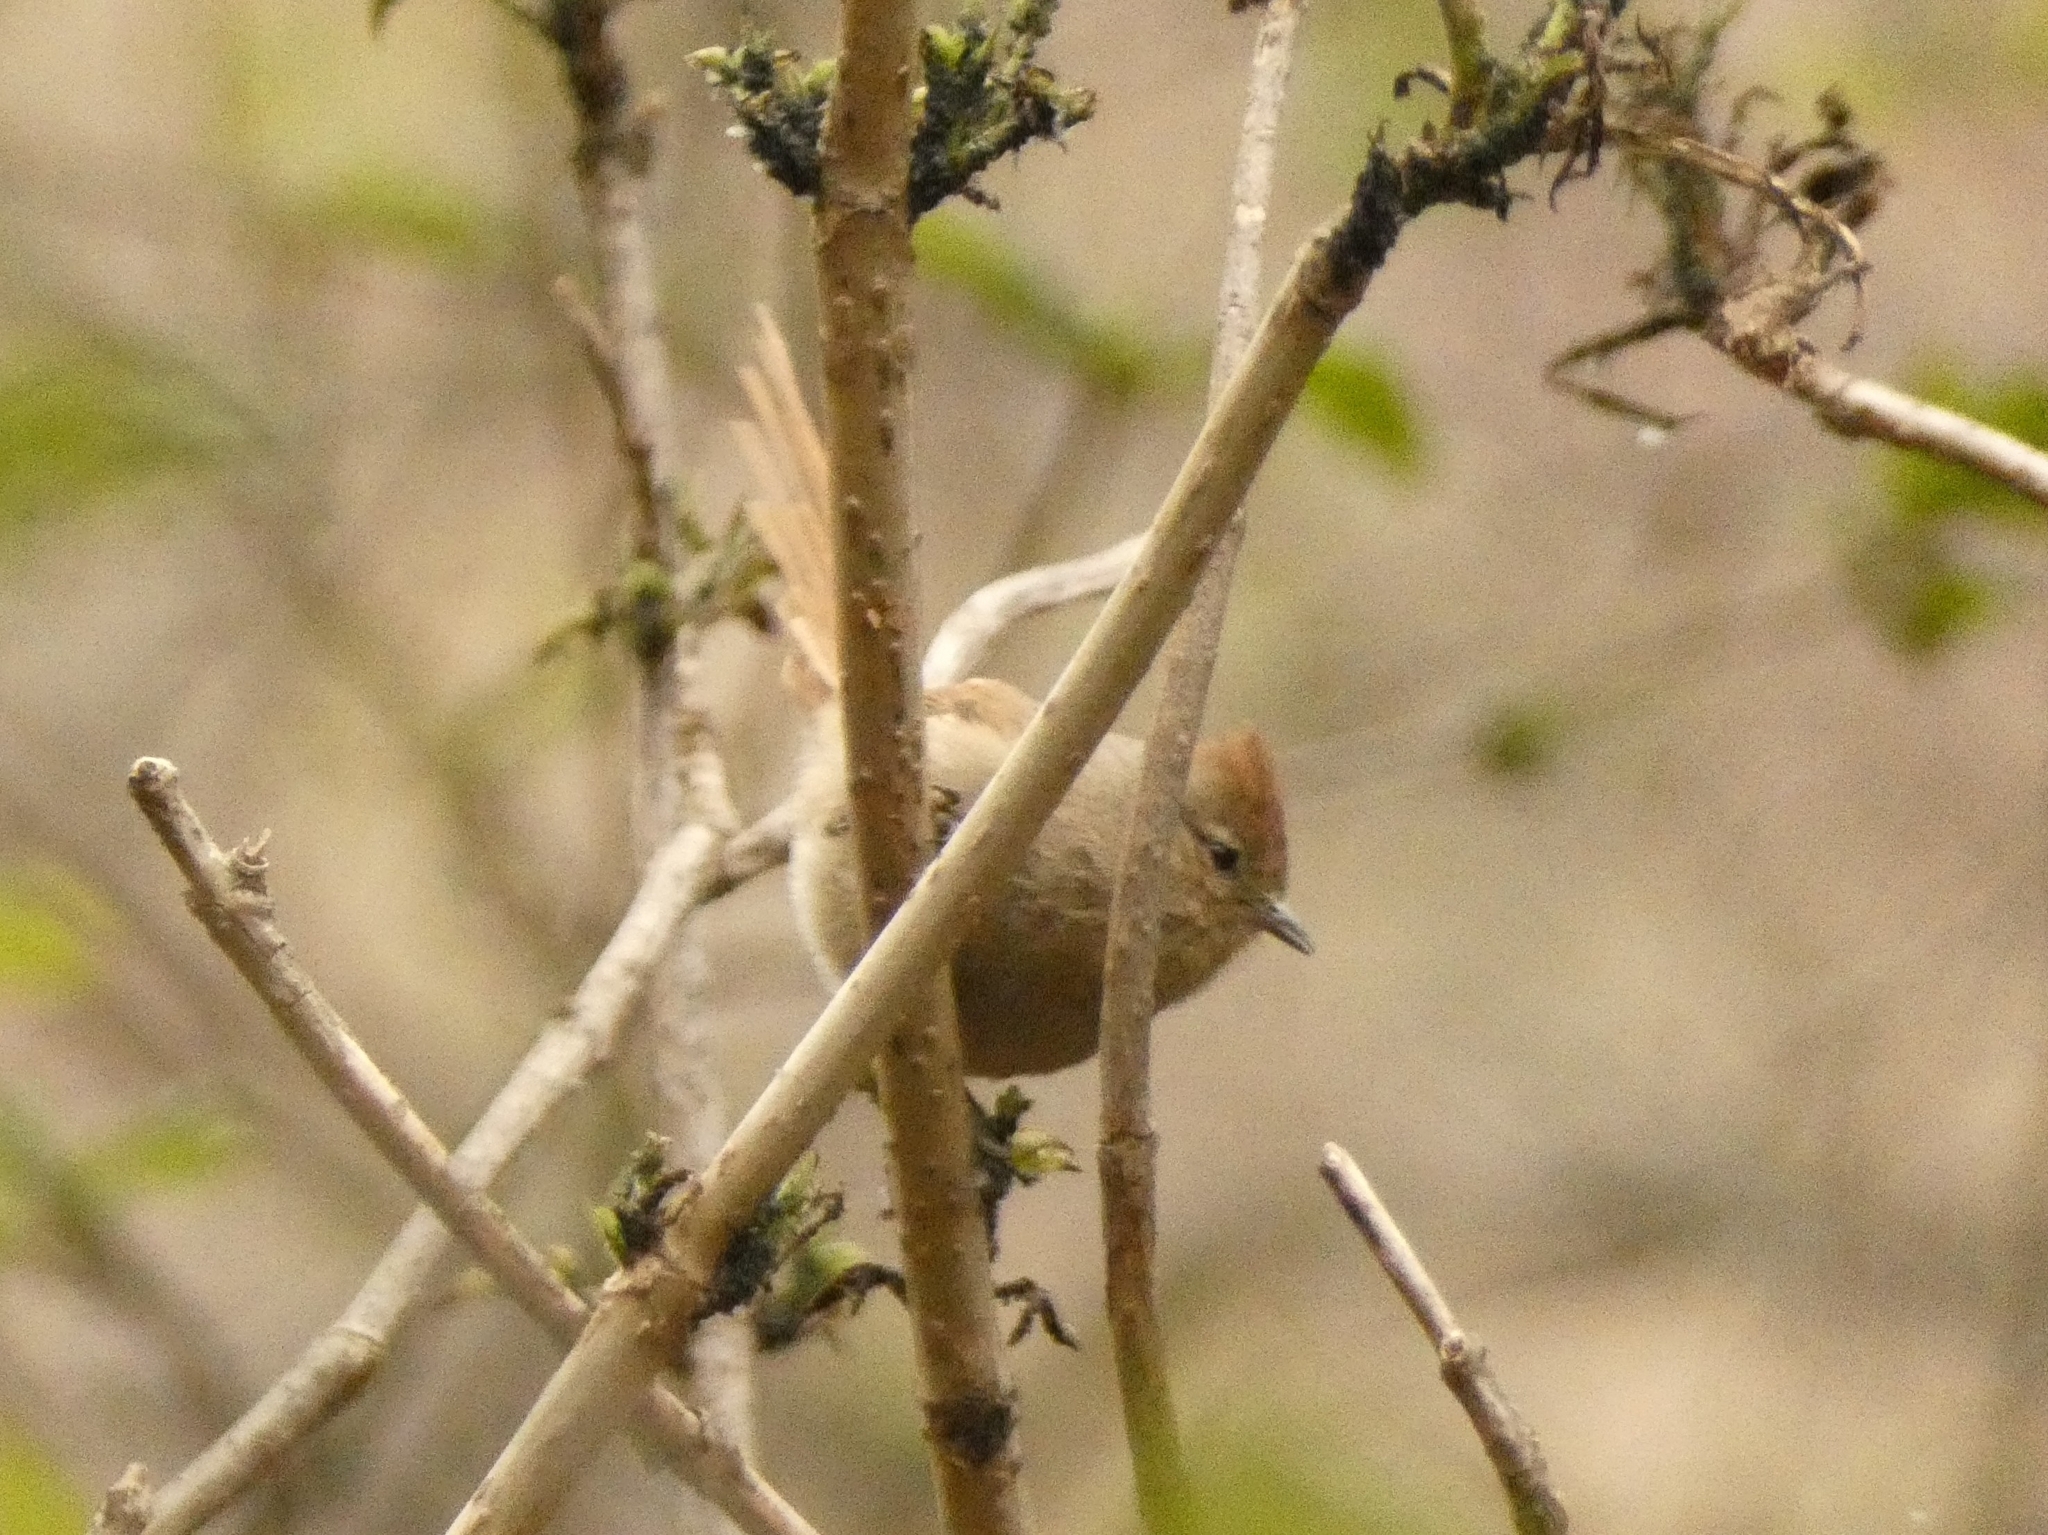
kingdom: Animalia
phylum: Chordata
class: Aves
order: Passeriformes
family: Furnariidae
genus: Leptasthenura
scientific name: Leptasthenura fuliginiceps
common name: Brown-capped tit-spinetail
